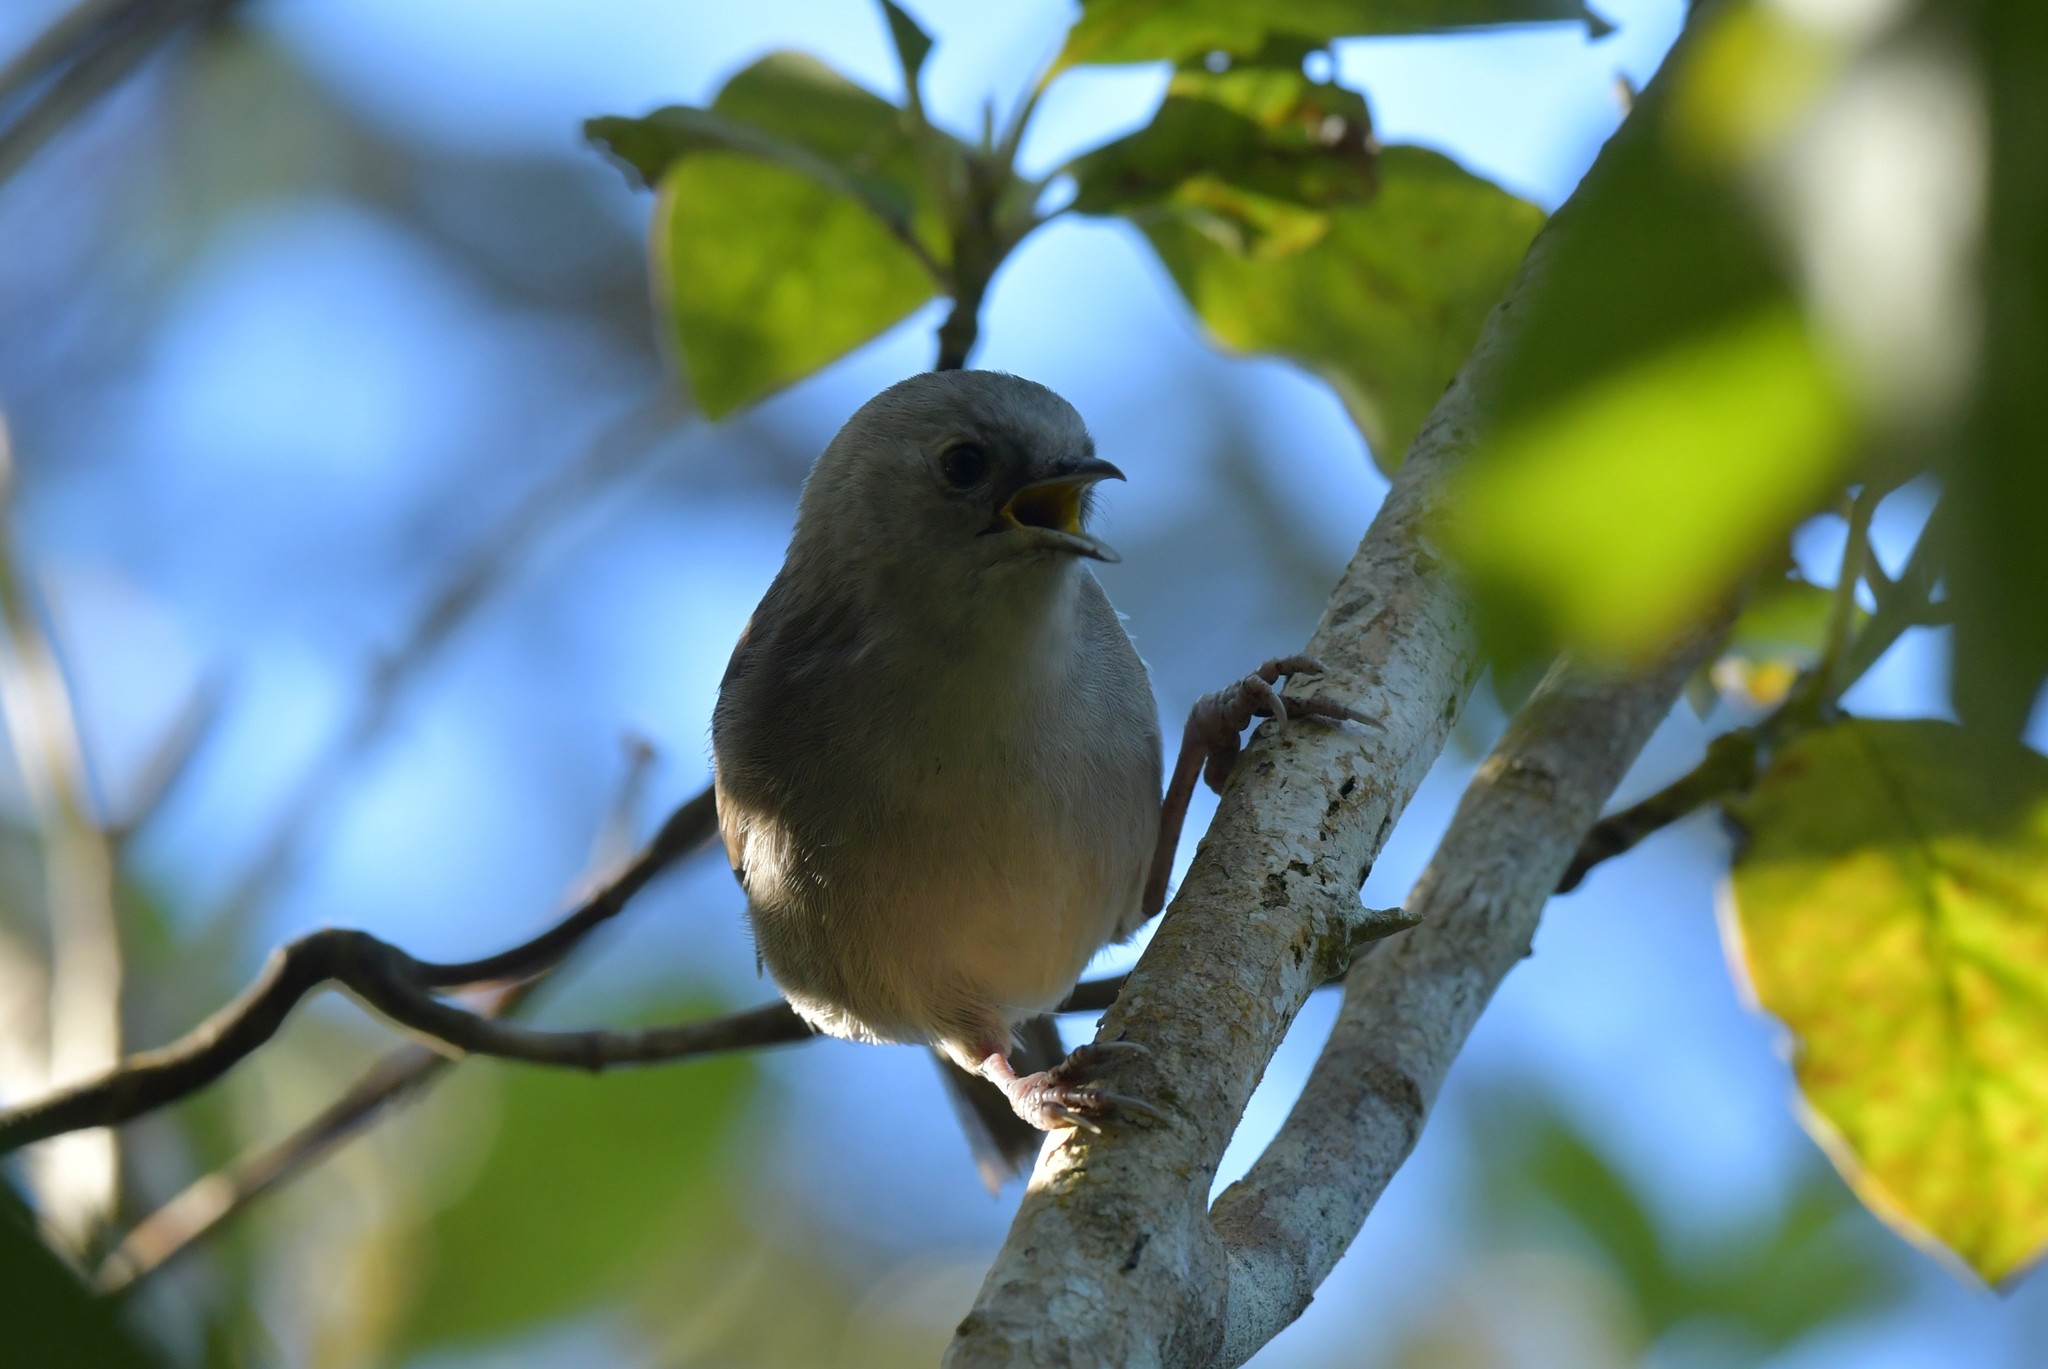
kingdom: Animalia
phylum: Chordata
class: Aves
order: Passeriformes
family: Acanthizidae
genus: Mohoua
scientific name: Mohoua albicilla
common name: Whitehead
